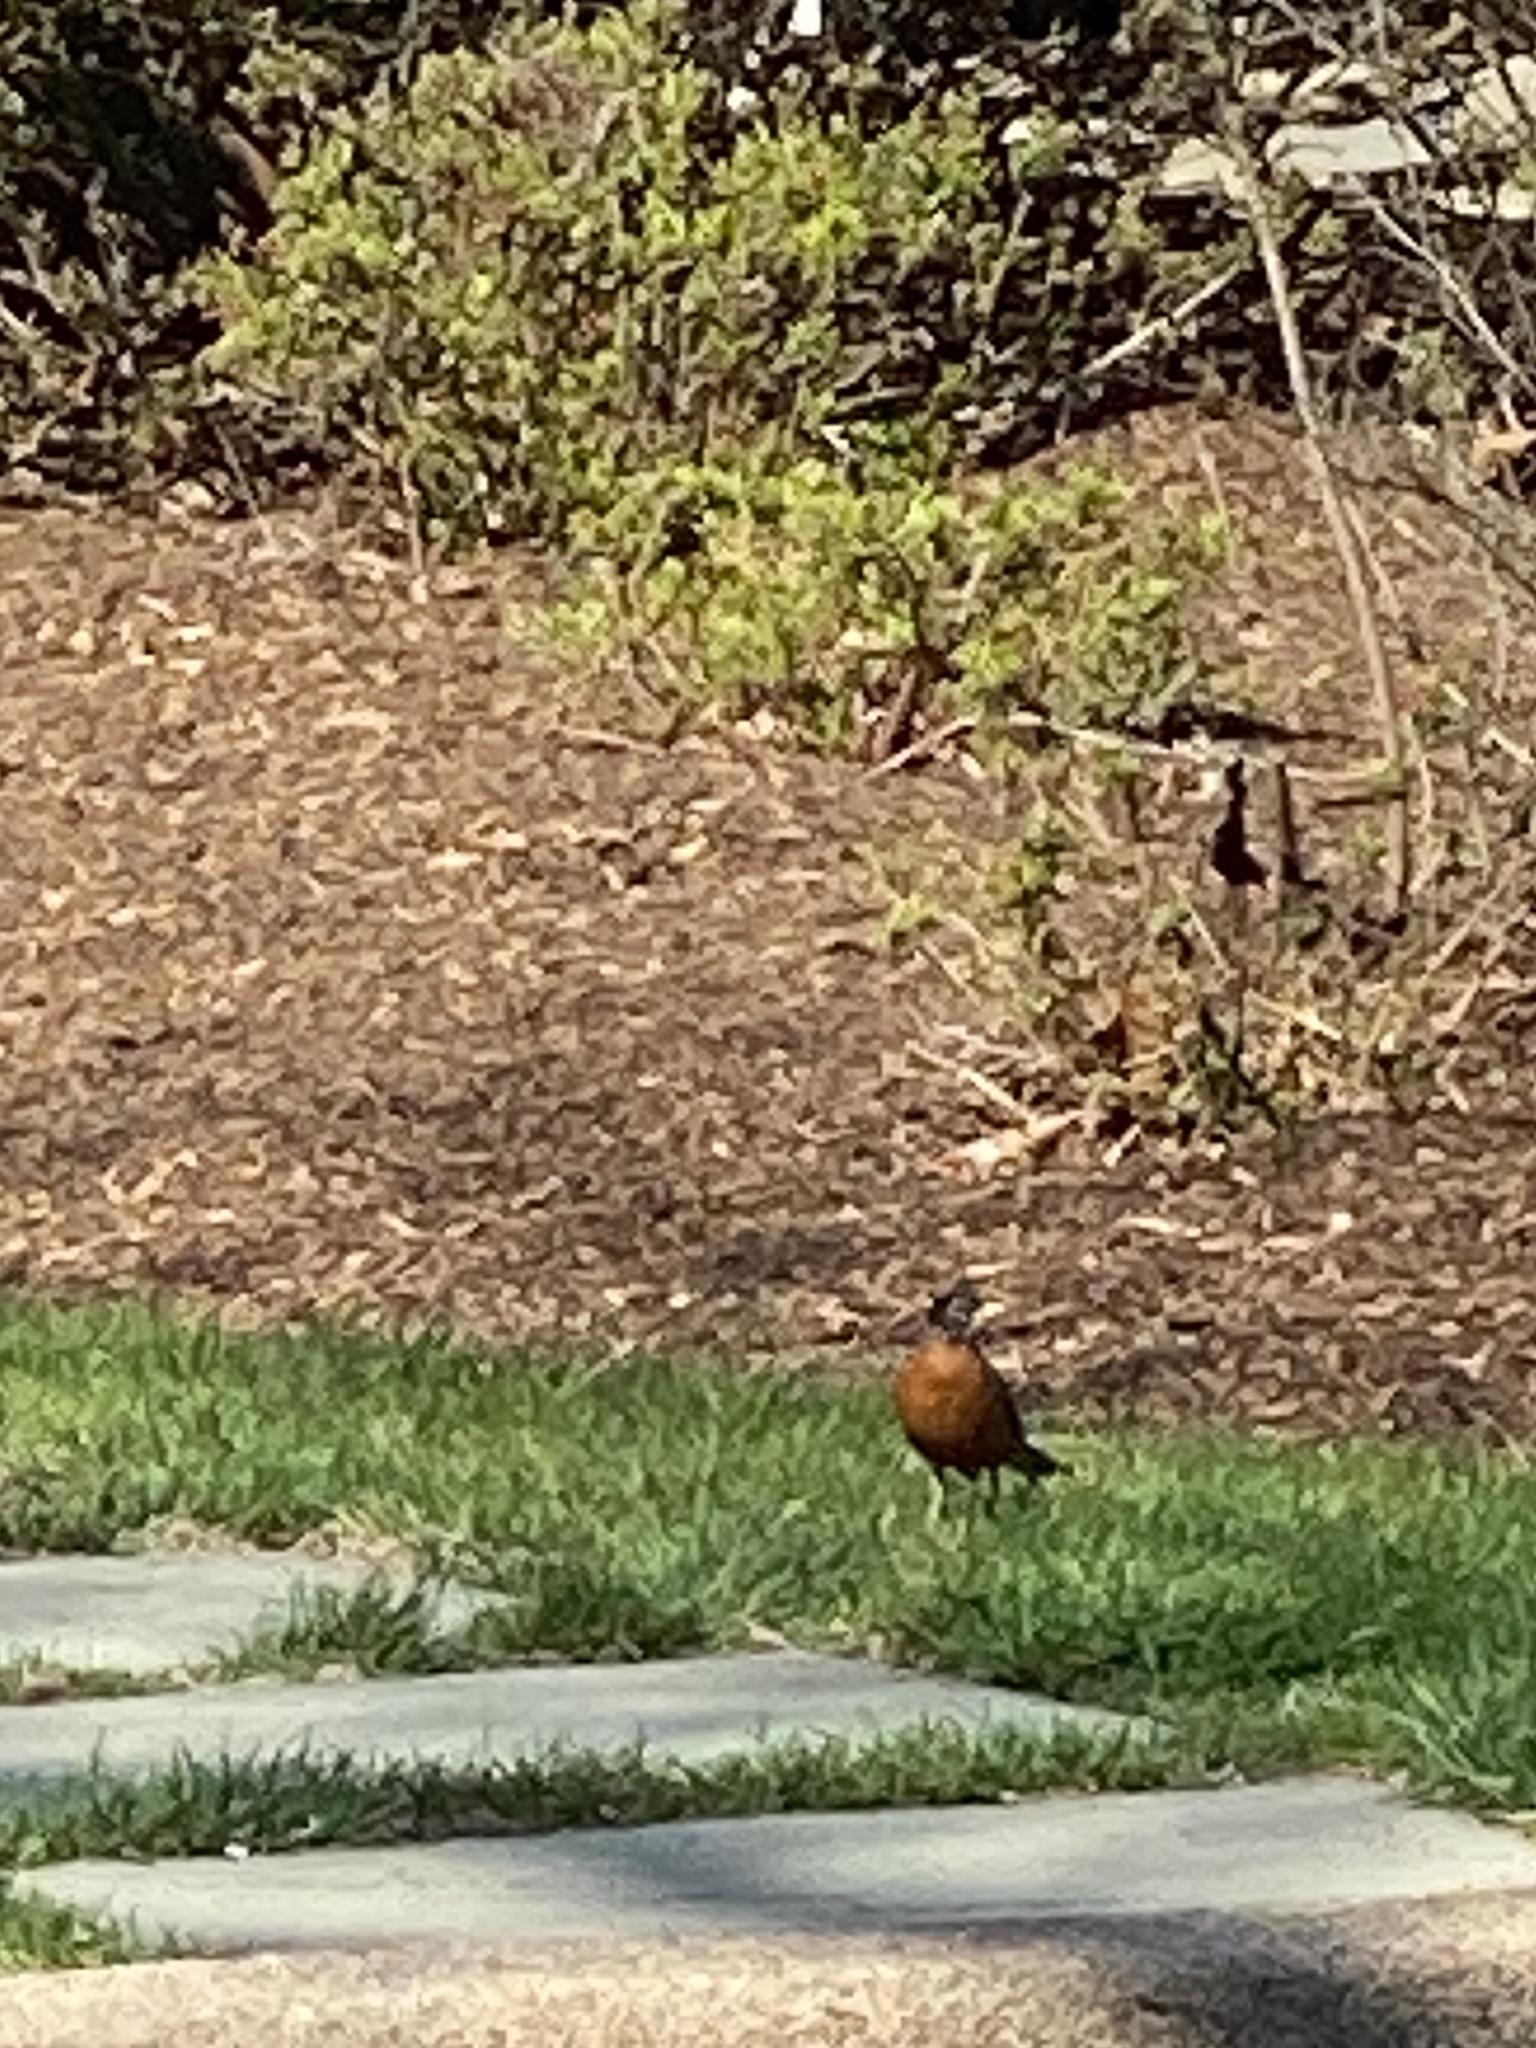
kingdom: Animalia
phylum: Chordata
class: Aves
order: Passeriformes
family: Turdidae
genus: Turdus
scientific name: Turdus migratorius
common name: American robin
